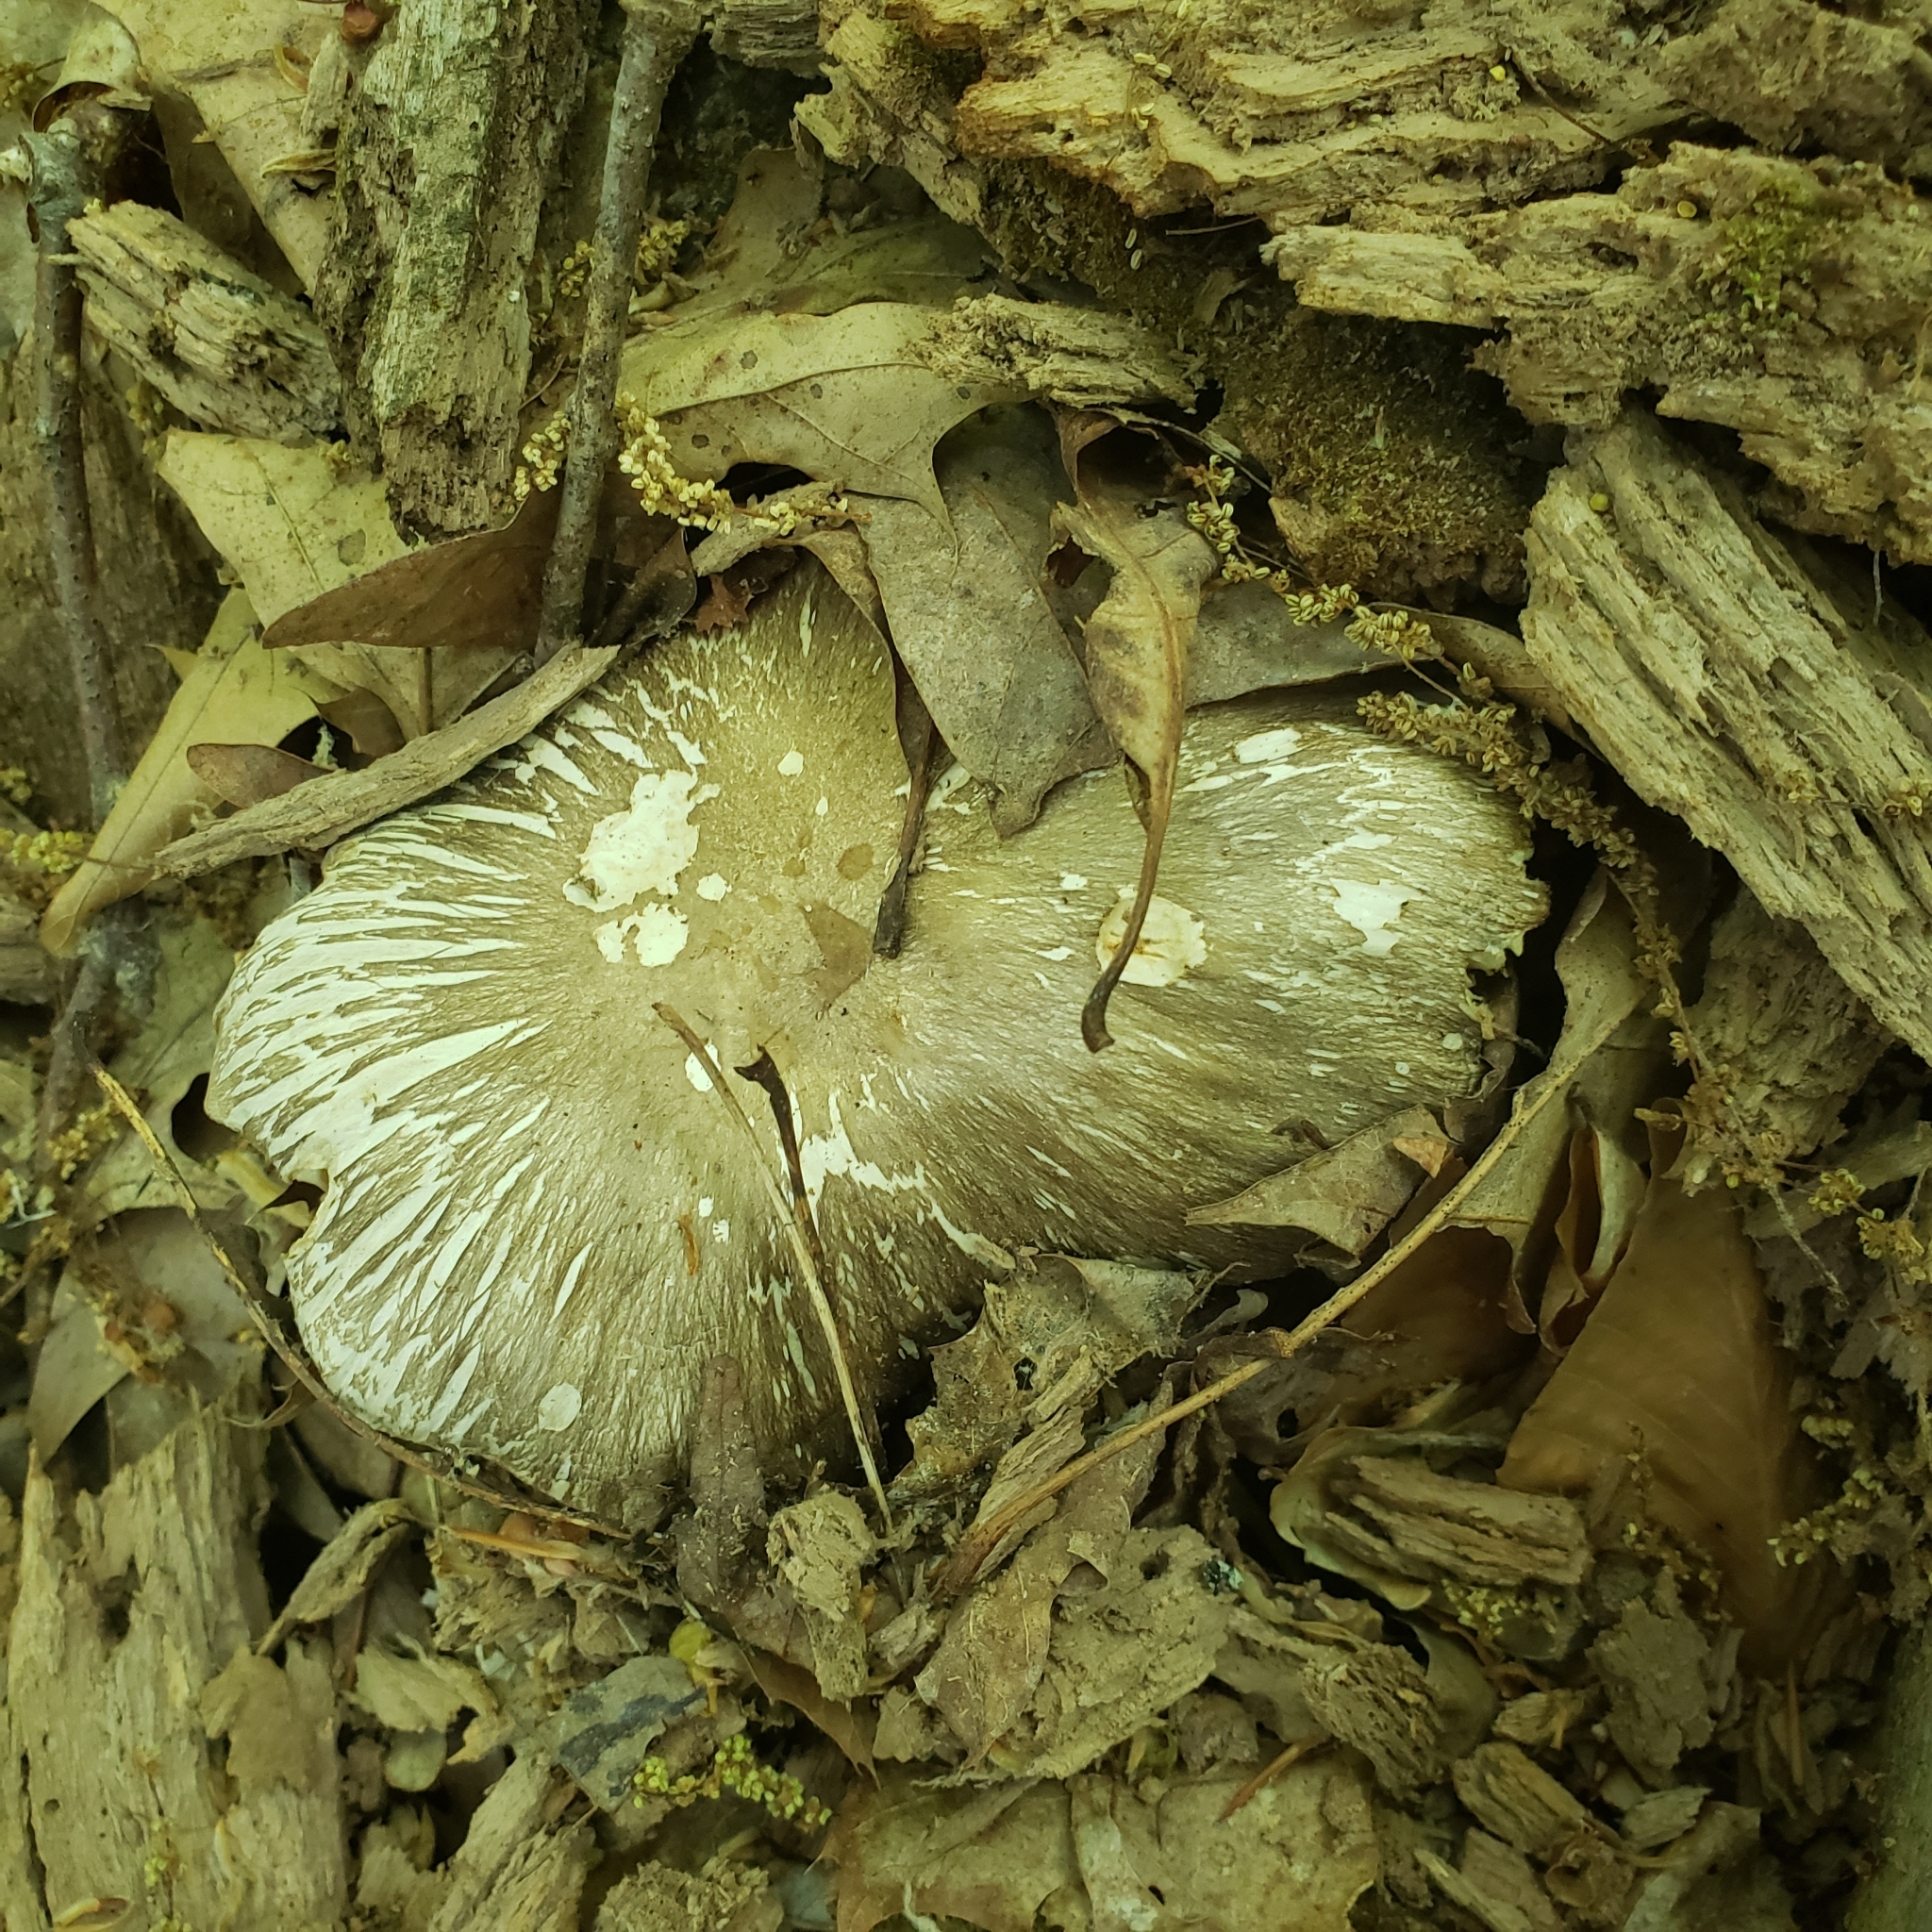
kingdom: Fungi
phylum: Basidiomycota
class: Agaricomycetes
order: Agaricales
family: Tricholomataceae
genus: Megacollybia
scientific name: Megacollybia rodmanii
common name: Eastern american platterful mushroom
